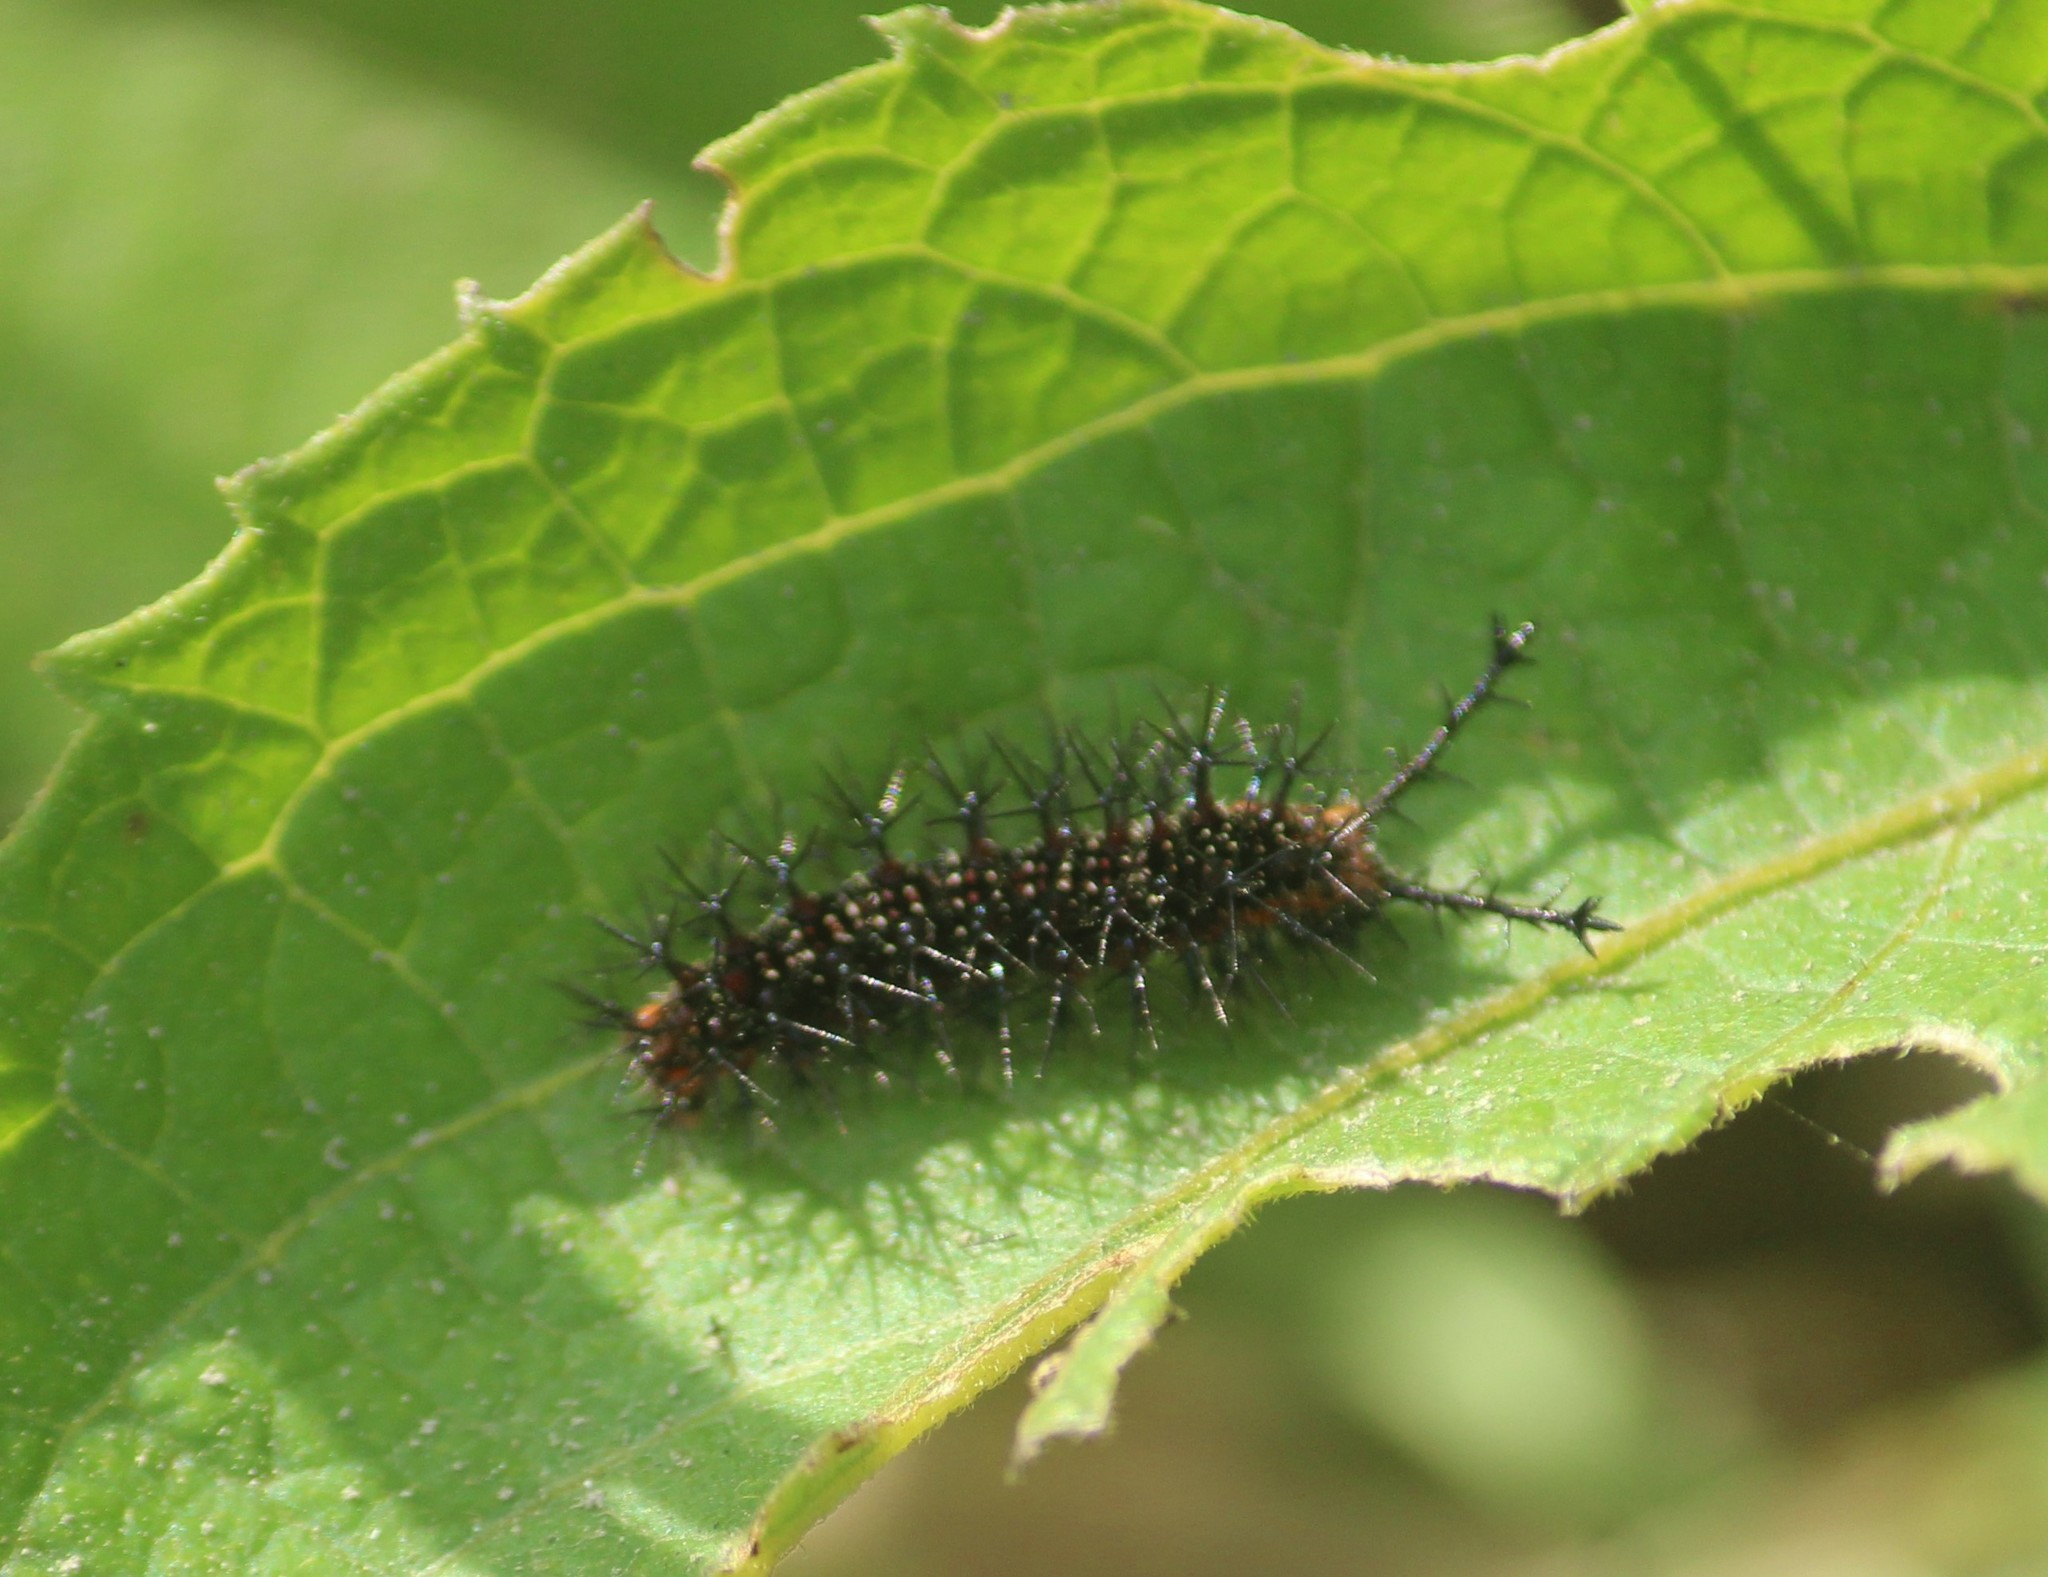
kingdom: Animalia
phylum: Arthropoda
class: Insecta
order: Lepidoptera
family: Nymphalidae
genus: Ariadne
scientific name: Ariadne ariadne
